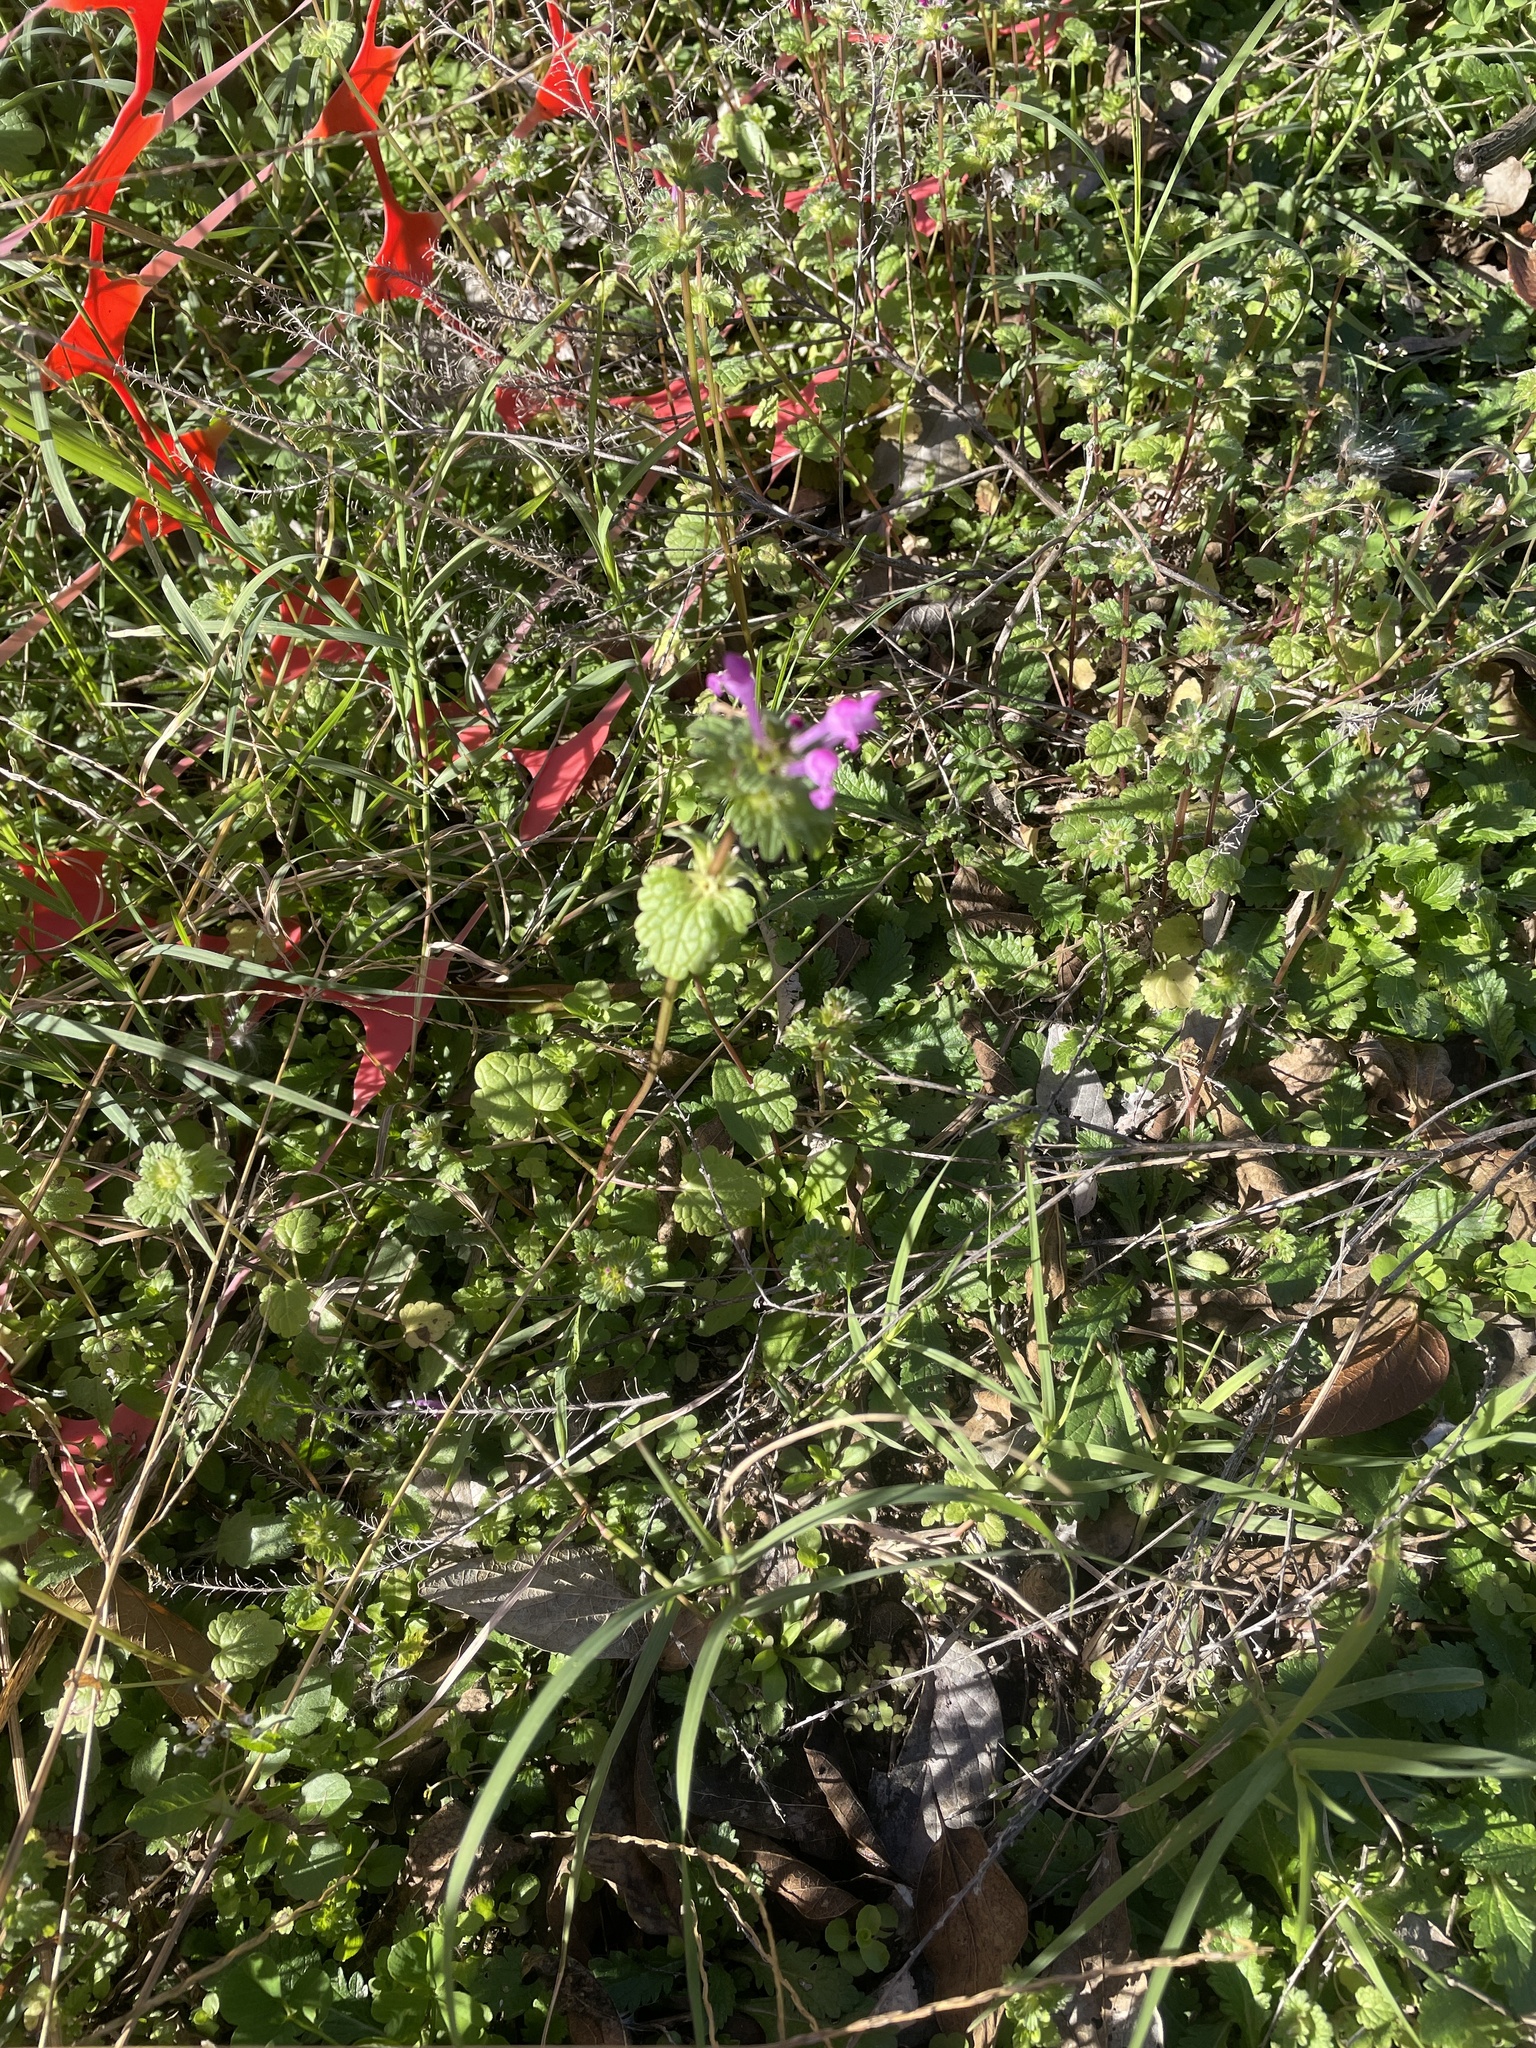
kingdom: Plantae
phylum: Tracheophyta
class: Magnoliopsida
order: Lamiales
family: Lamiaceae
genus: Lamium
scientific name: Lamium amplexicaule
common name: Henbit dead-nettle
